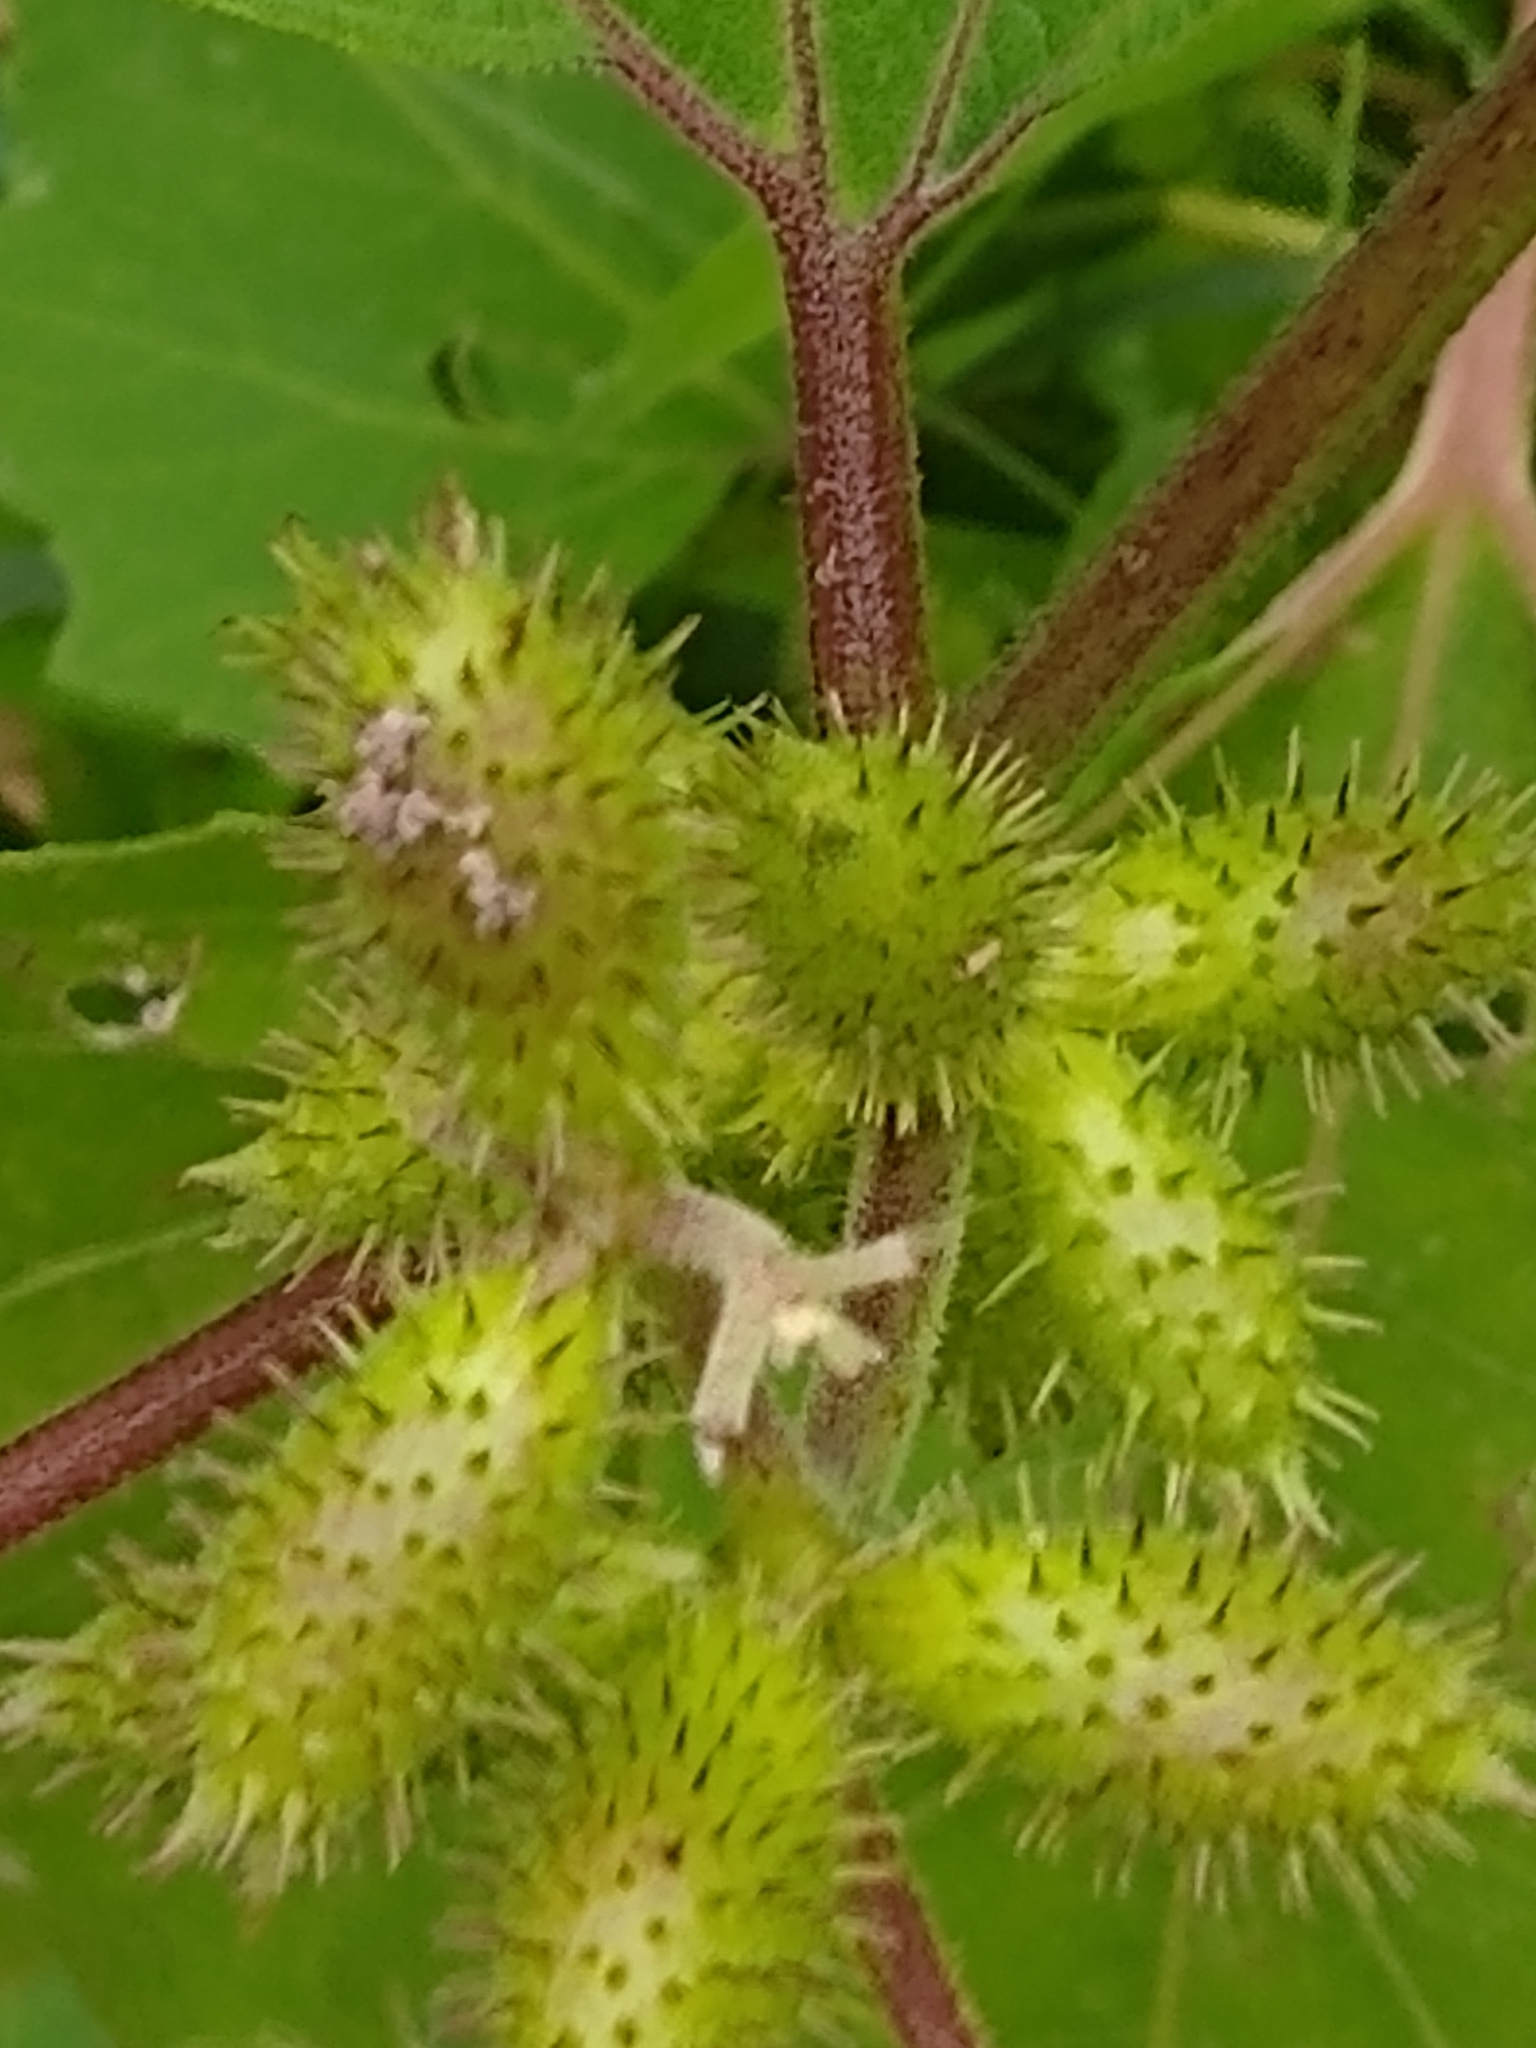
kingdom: Plantae
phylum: Tracheophyta
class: Magnoliopsida
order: Asterales
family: Asteraceae
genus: Xanthium
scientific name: Xanthium strumarium
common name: Rough cocklebur
